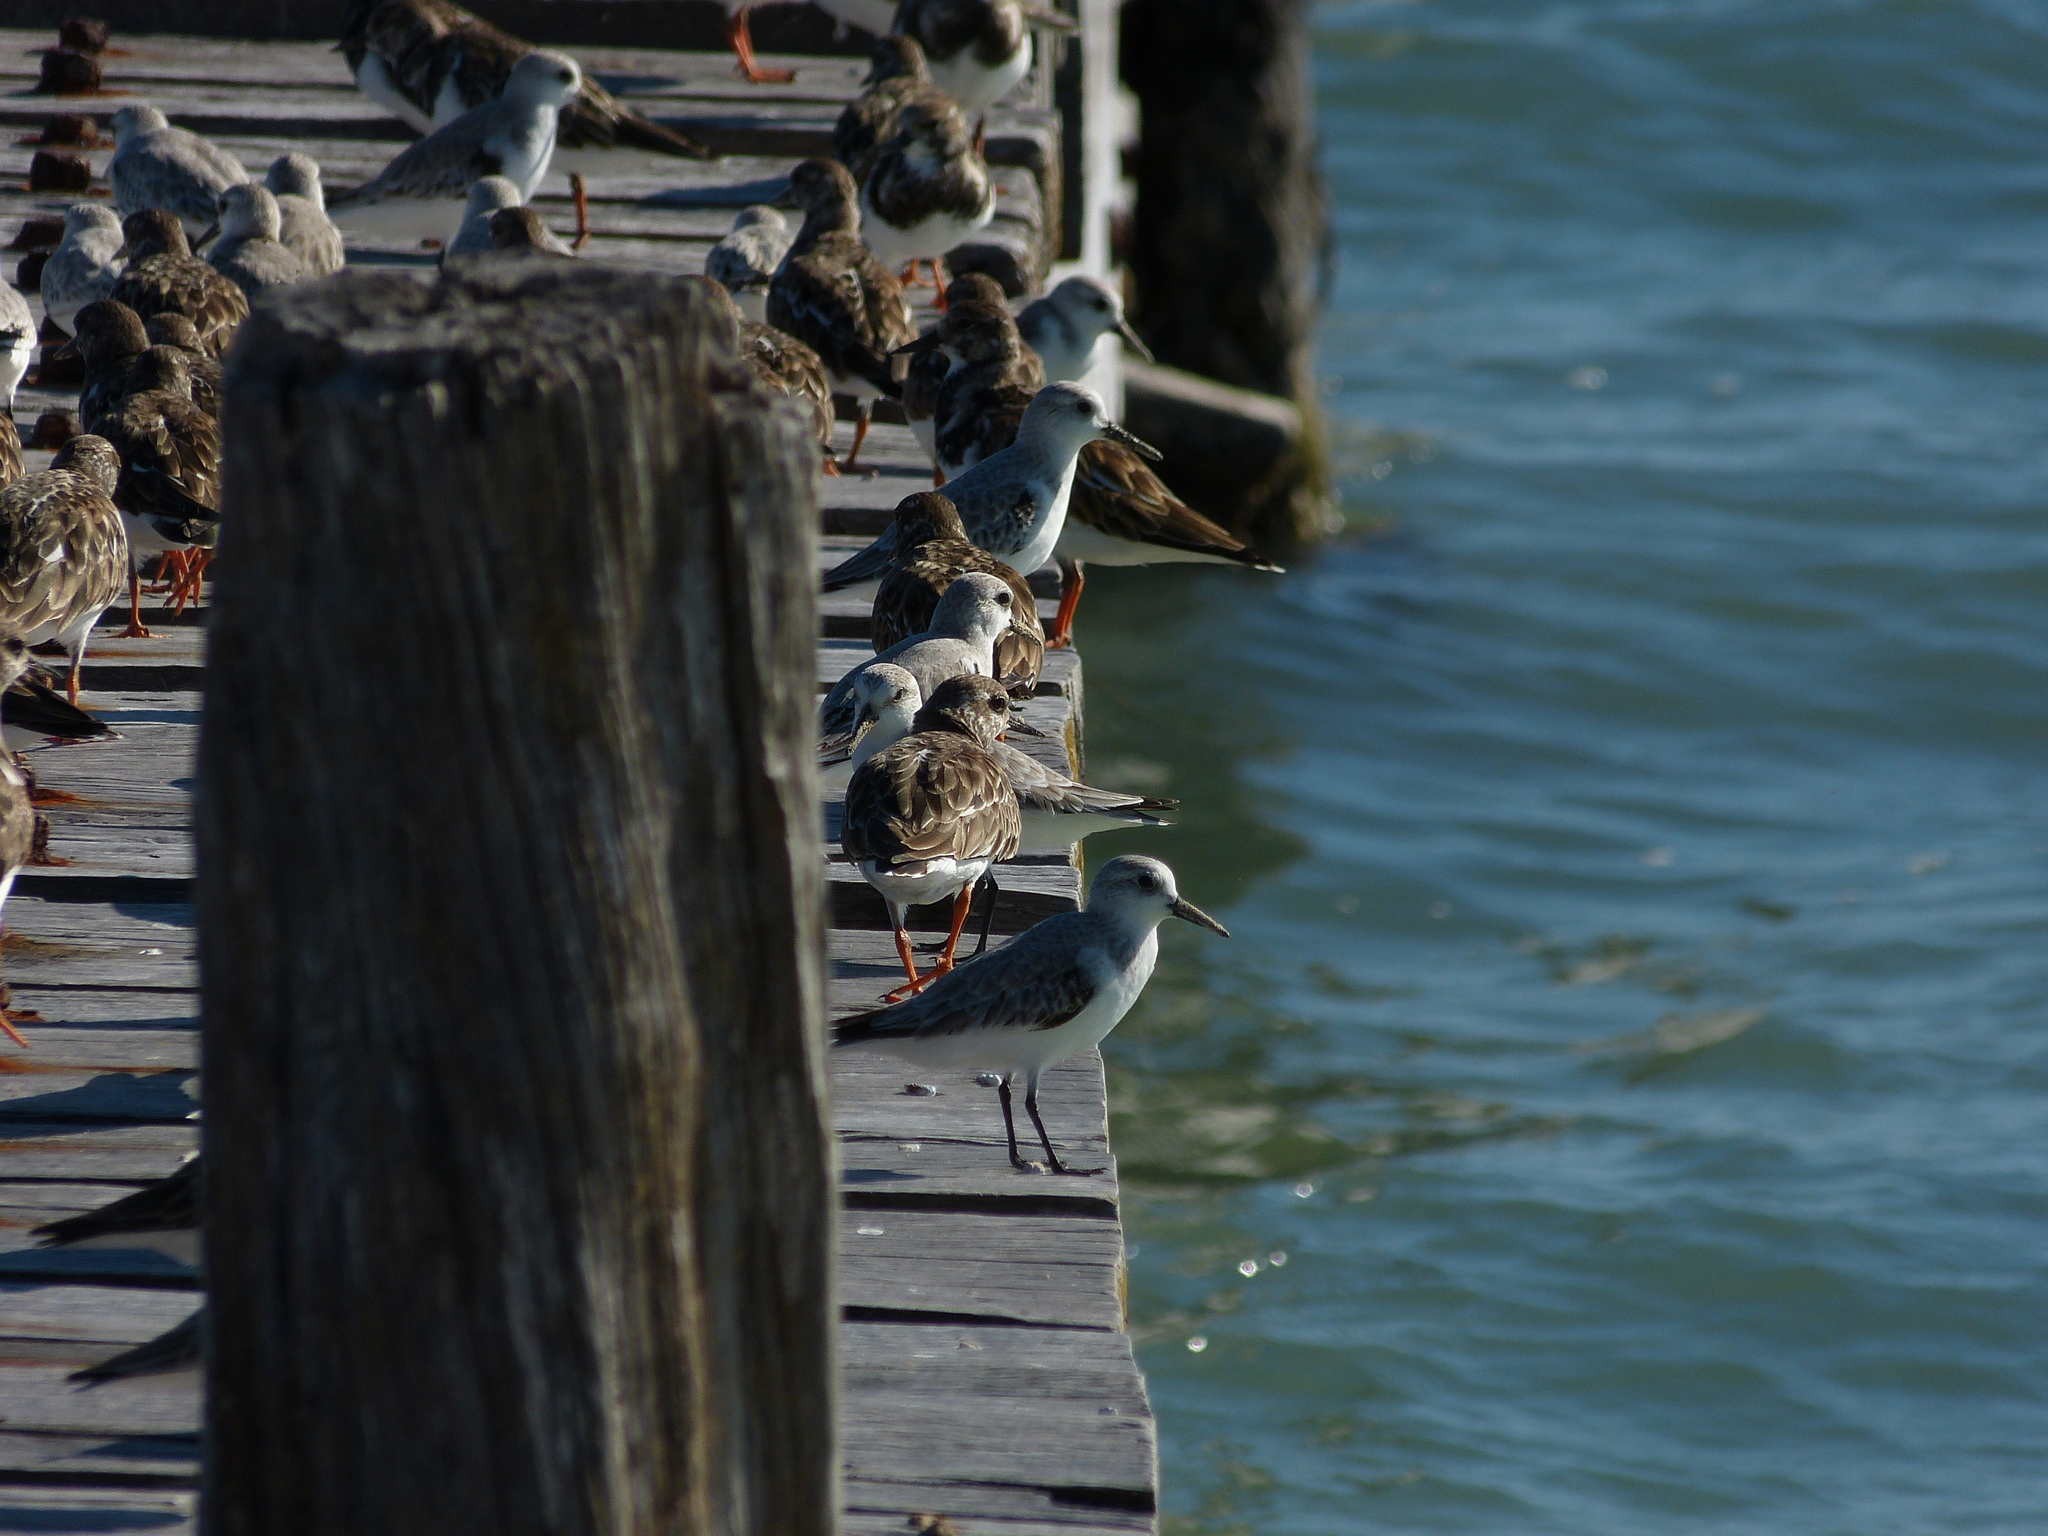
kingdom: Animalia
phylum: Chordata
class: Aves
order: Charadriiformes
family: Scolopacidae
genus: Calidris
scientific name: Calidris alba
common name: Sanderling
